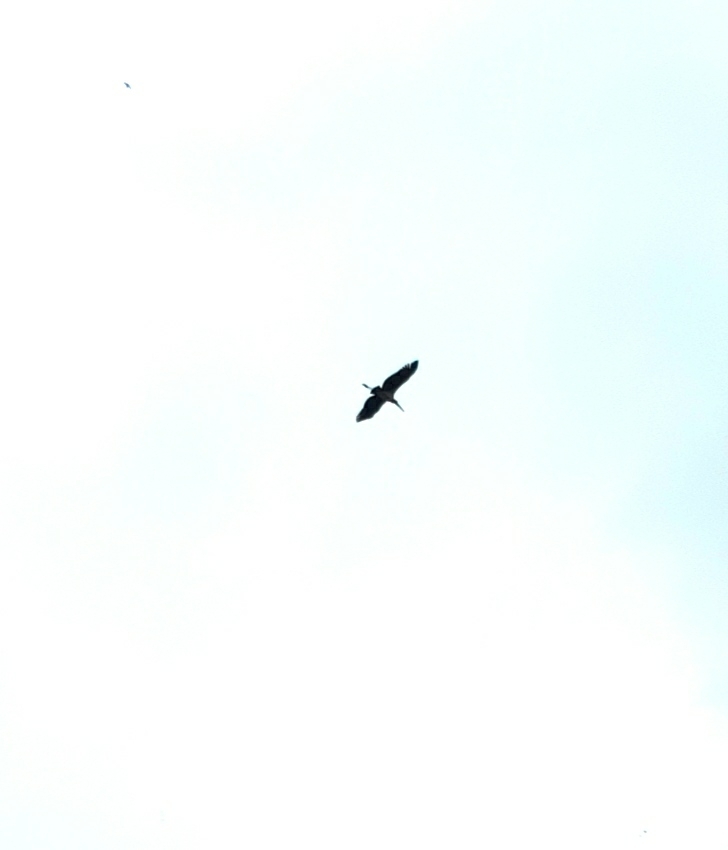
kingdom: Animalia
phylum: Chordata
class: Aves
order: Ciconiiformes
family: Ciconiidae
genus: Leptoptilos
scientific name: Leptoptilos javanicus
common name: Lesser adjutant
